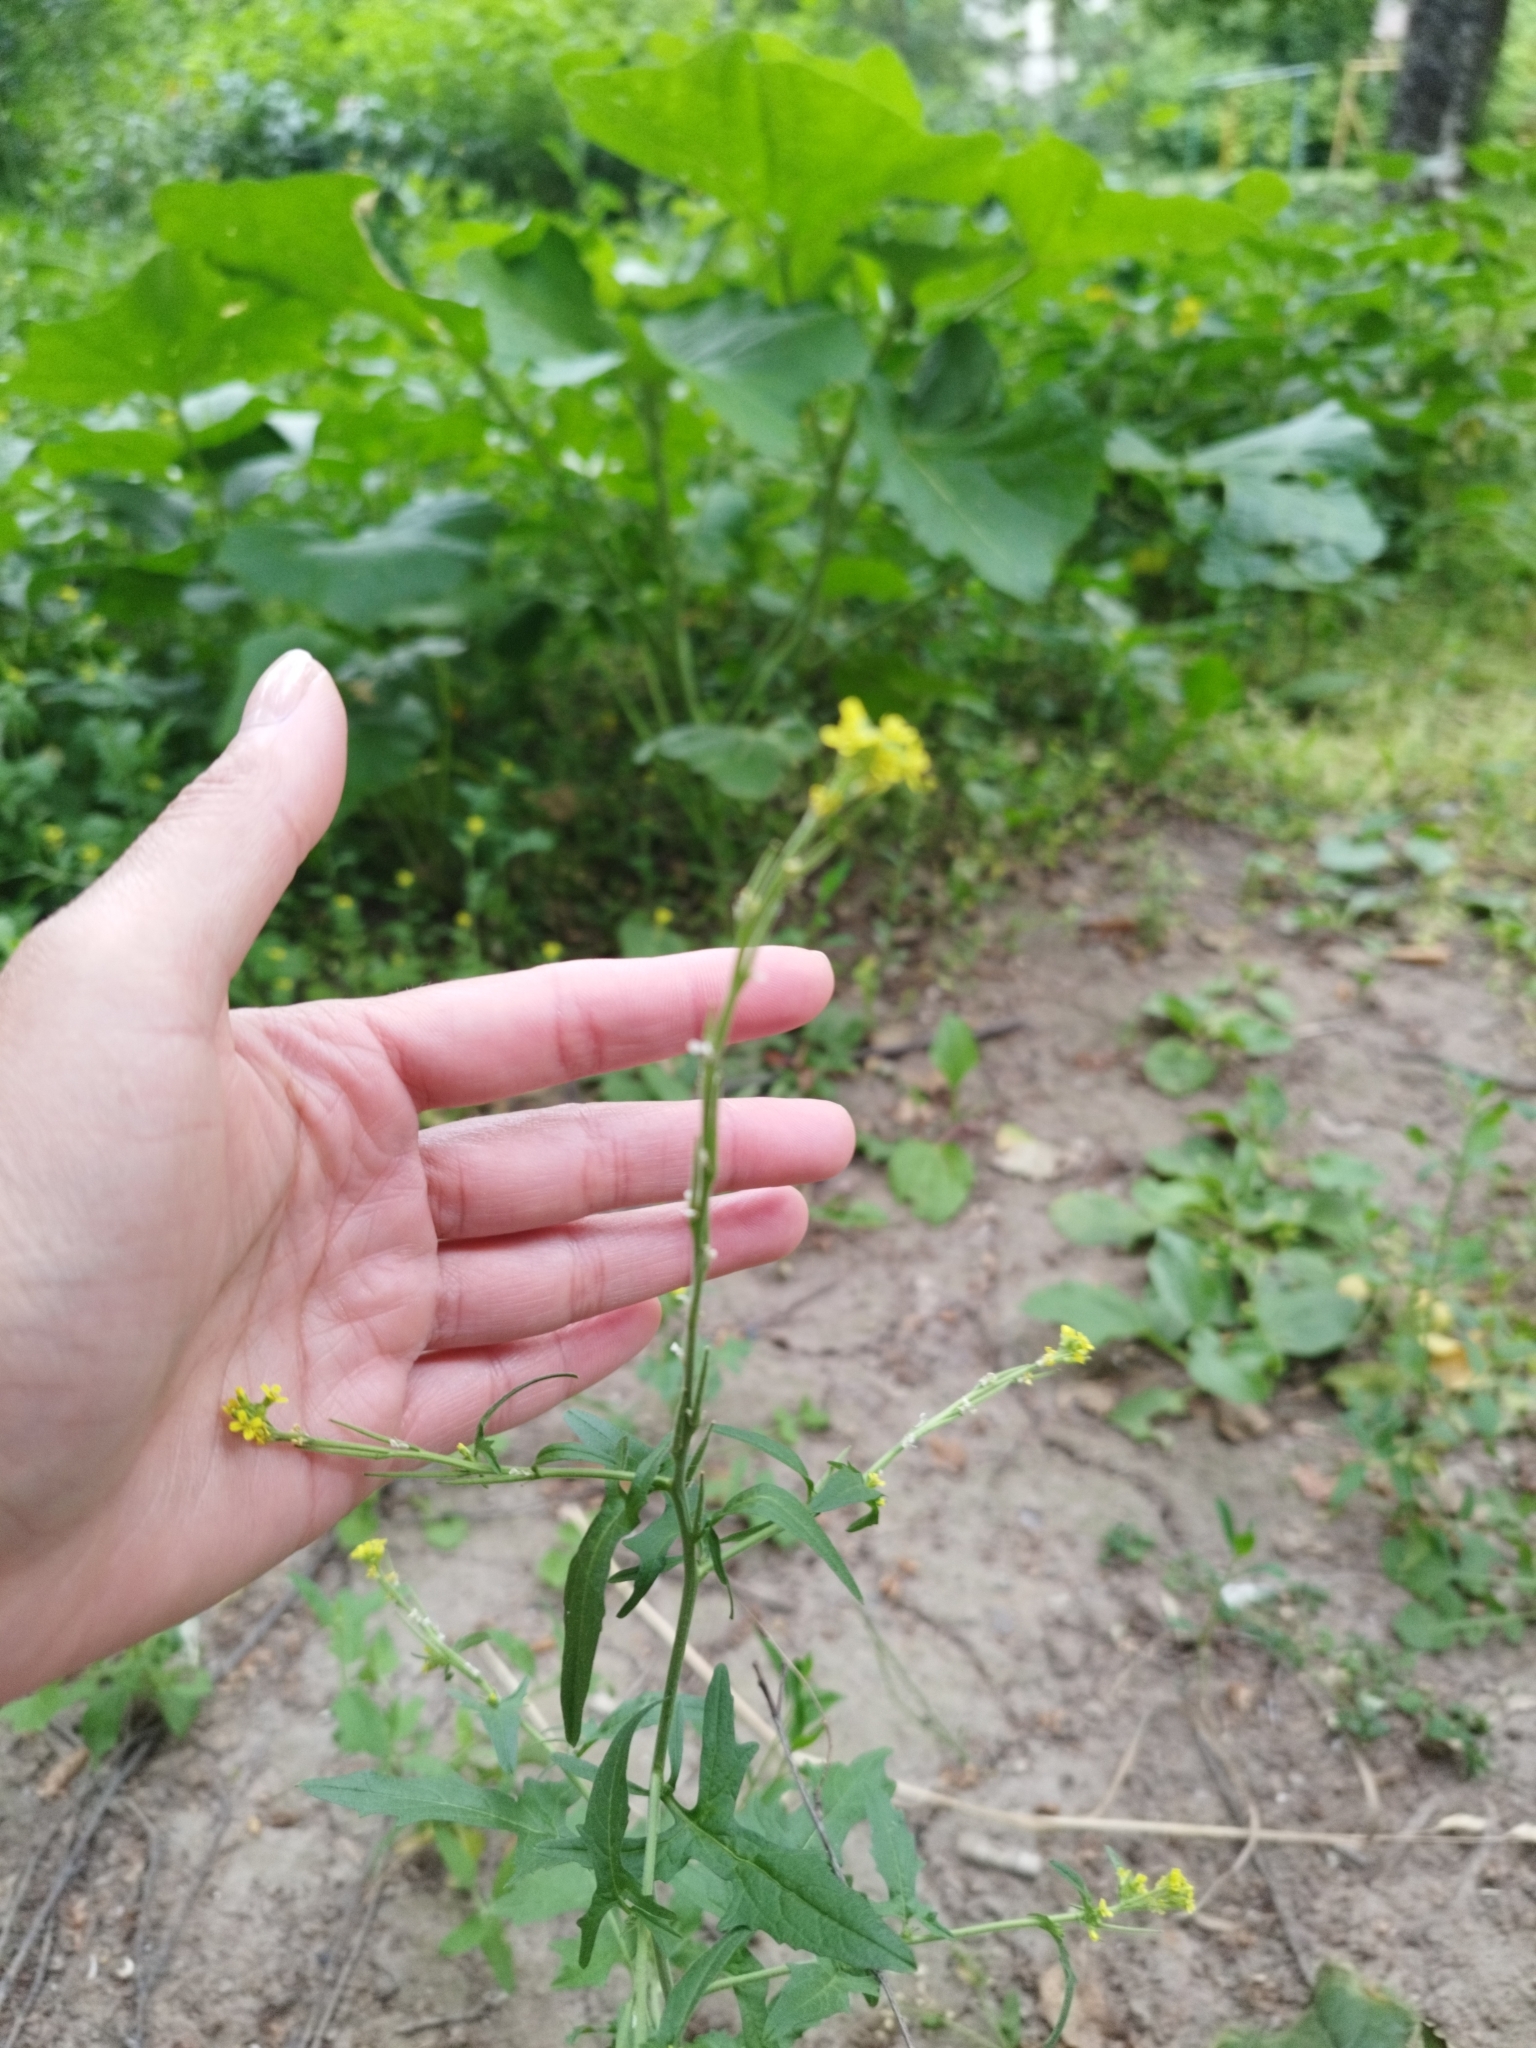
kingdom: Plantae
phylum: Tracheophyta
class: Magnoliopsida
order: Brassicales
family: Brassicaceae
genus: Sisymbrium
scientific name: Sisymbrium officinale
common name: Hedge mustard
